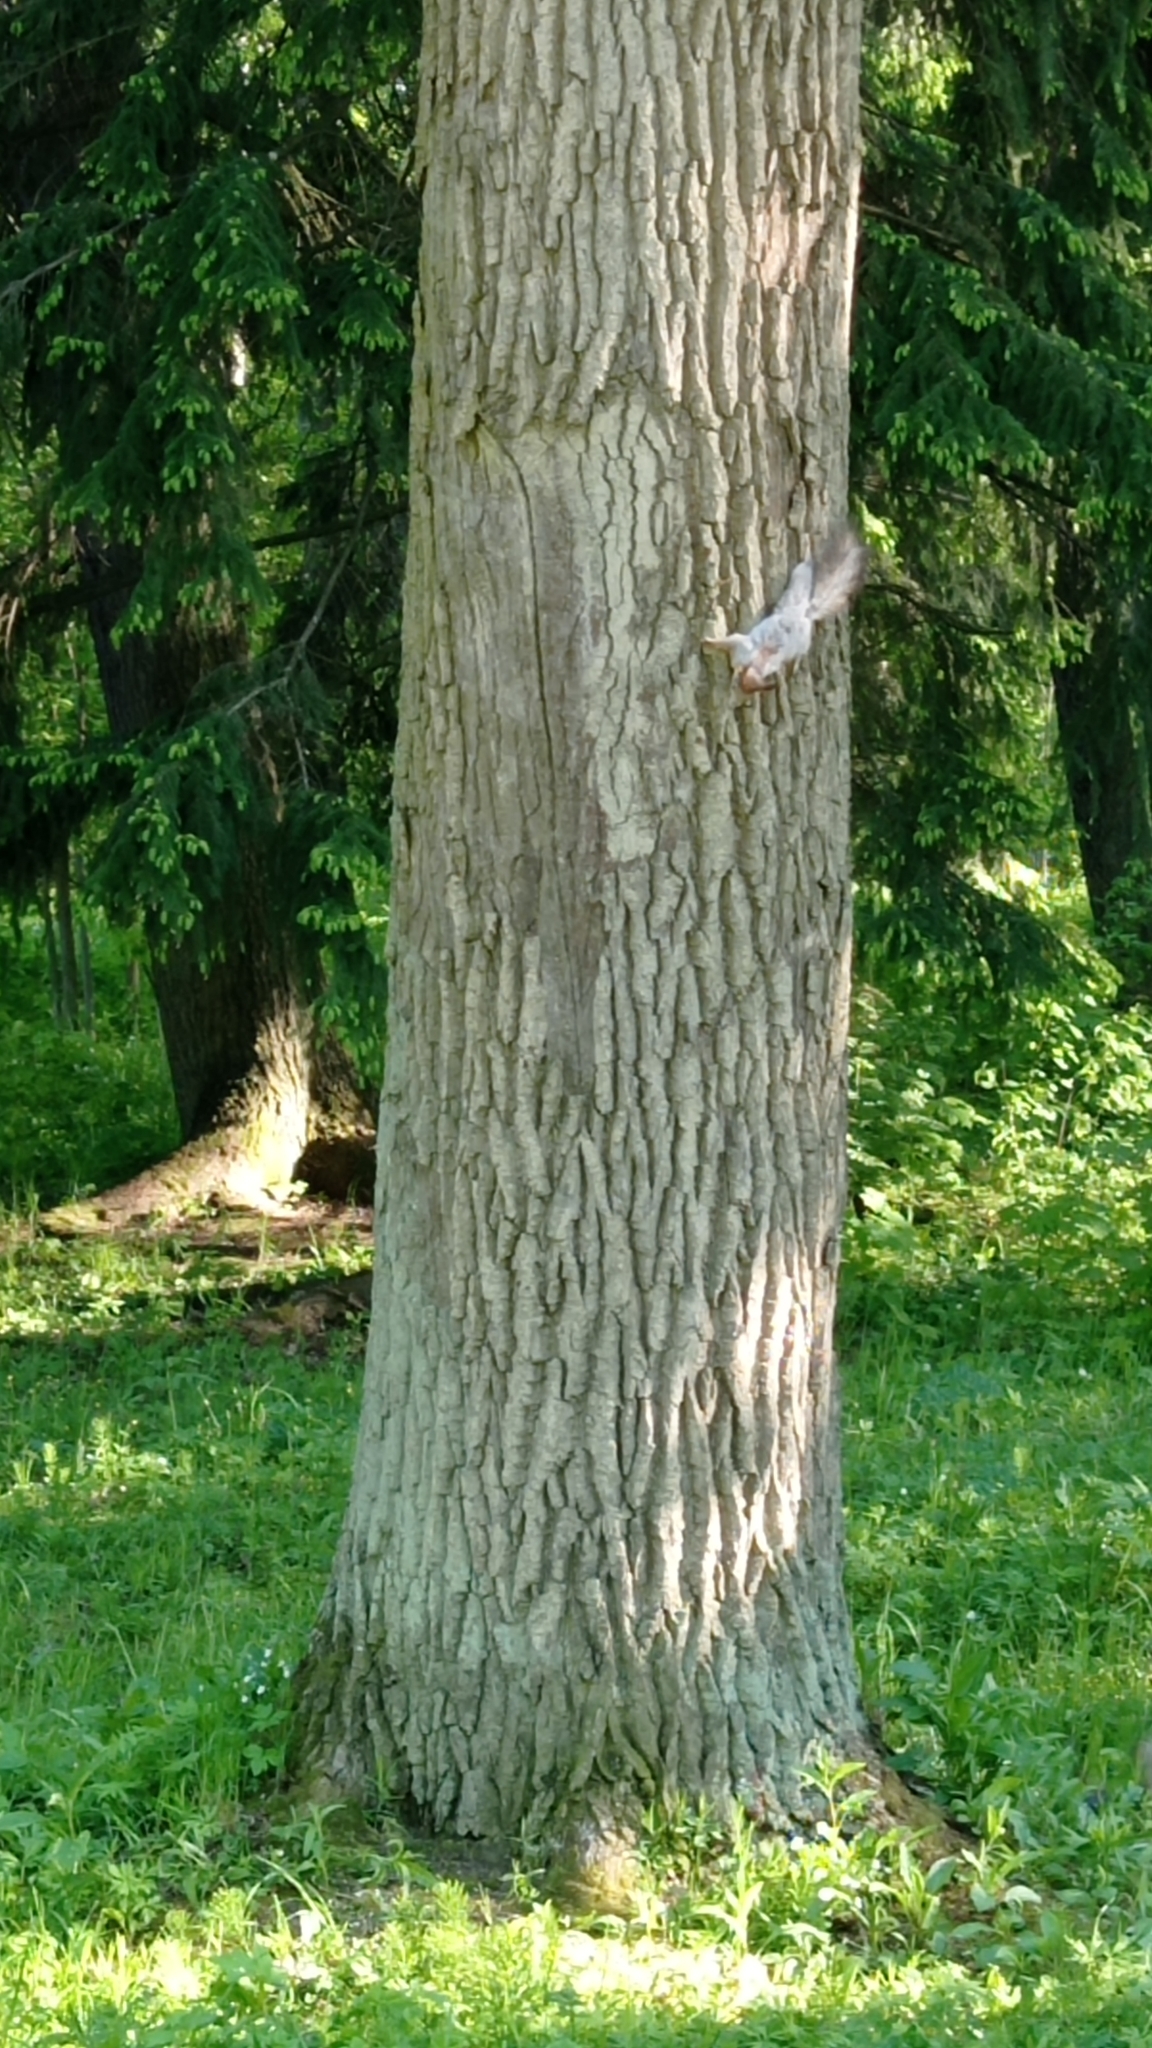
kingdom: Animalia
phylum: Chordata
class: Mammalia
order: Rodentia
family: Sciuridae
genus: Sciurus
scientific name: Sciurus vulgaris
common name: Eurasian red squirrel
